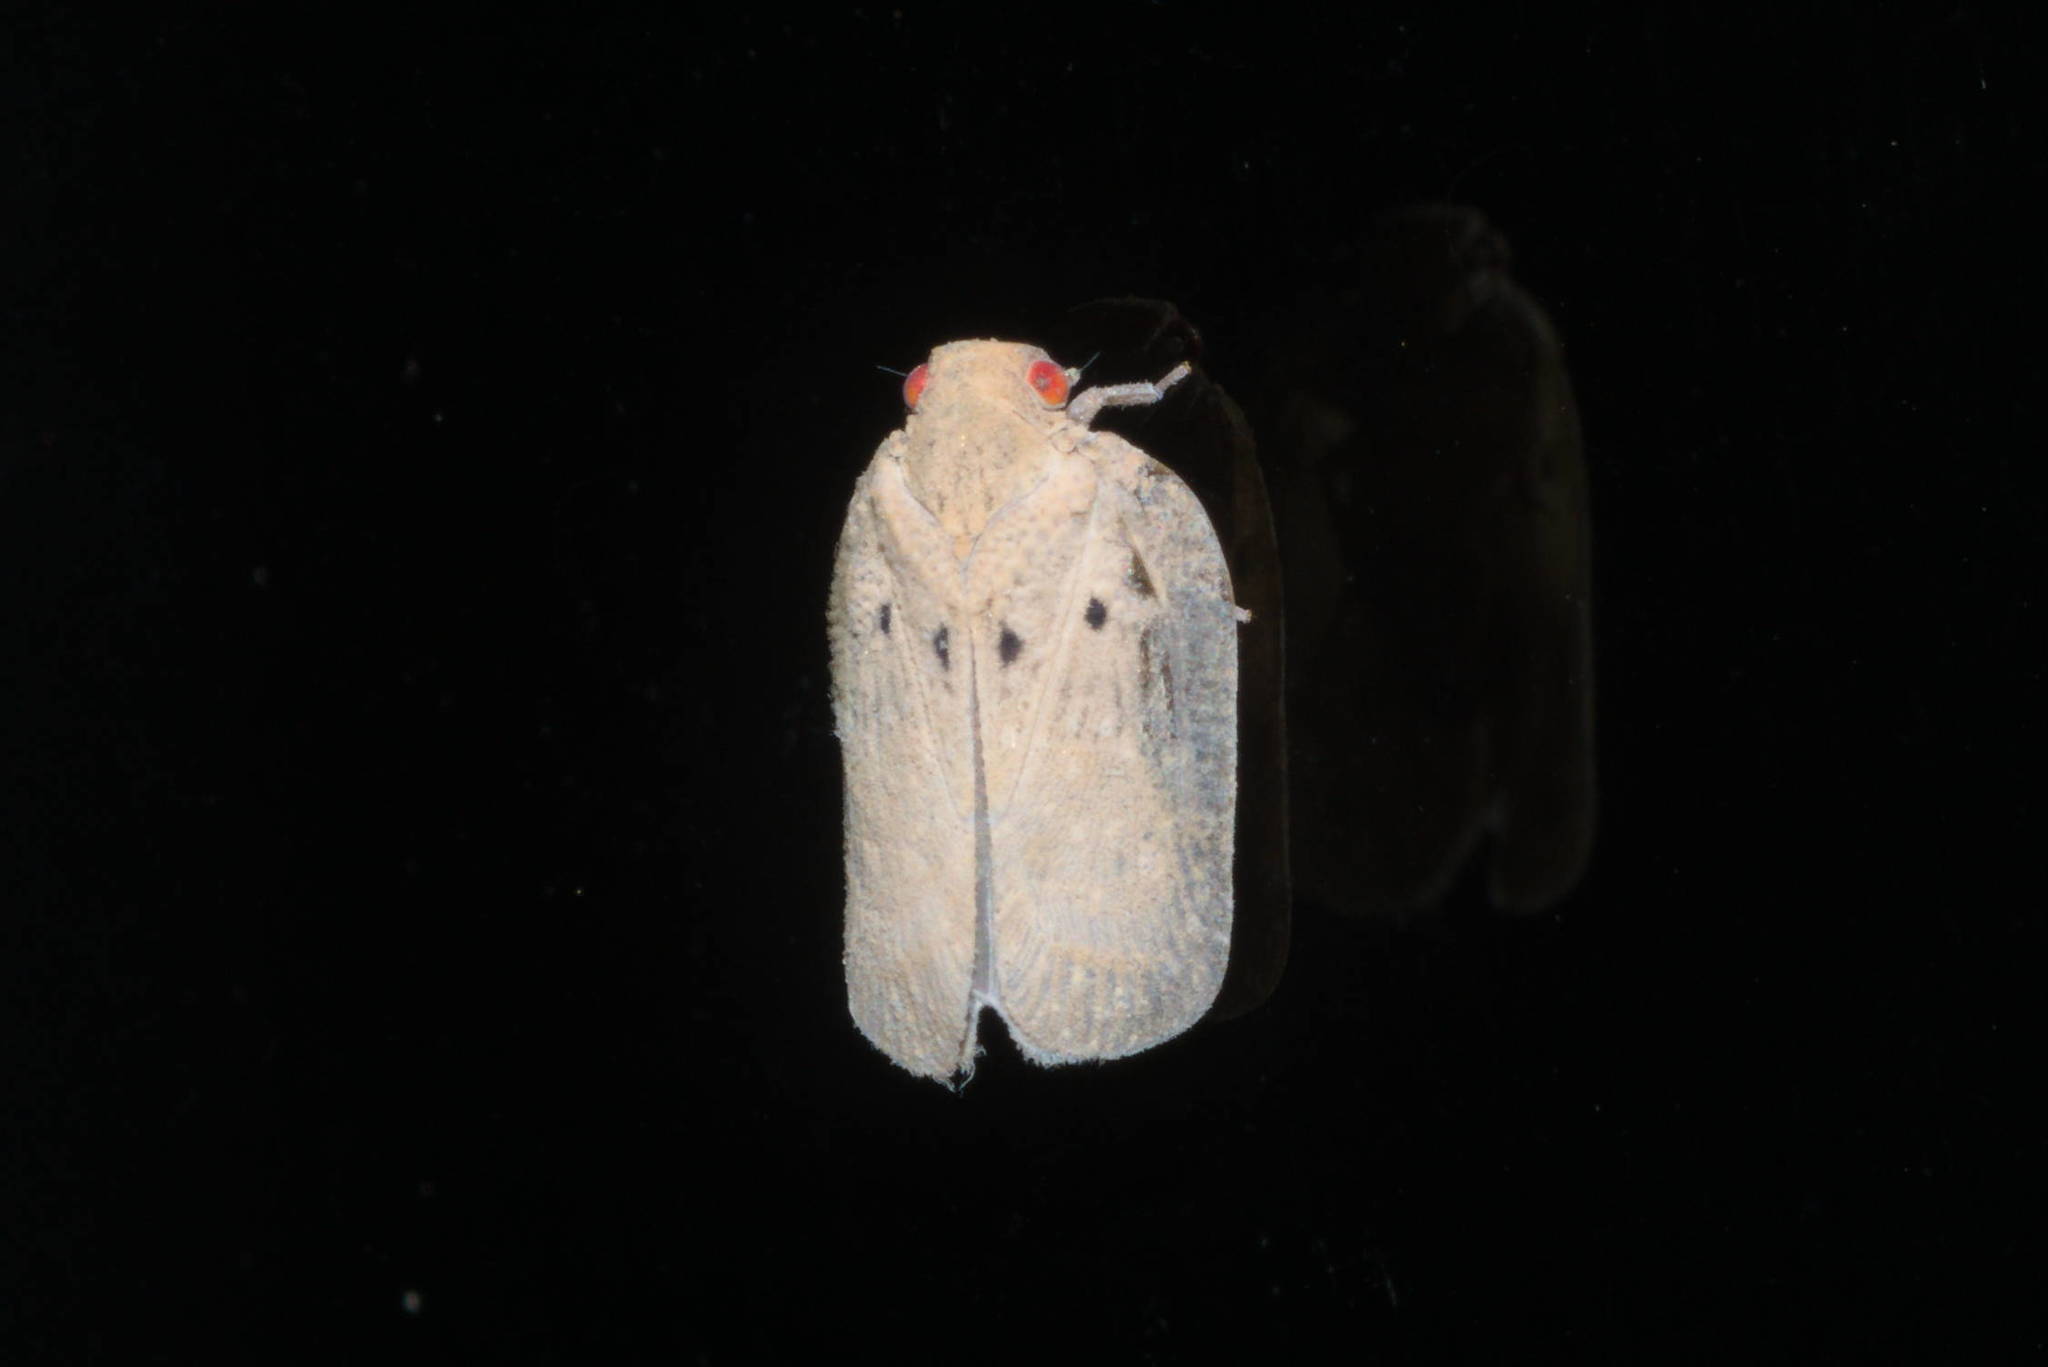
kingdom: Animalia
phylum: Arthropoda
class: Insecta
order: Hemiptera
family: Flatidae
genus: Melormenis
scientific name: Melormenis basalis
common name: Puerto rican planthopper
